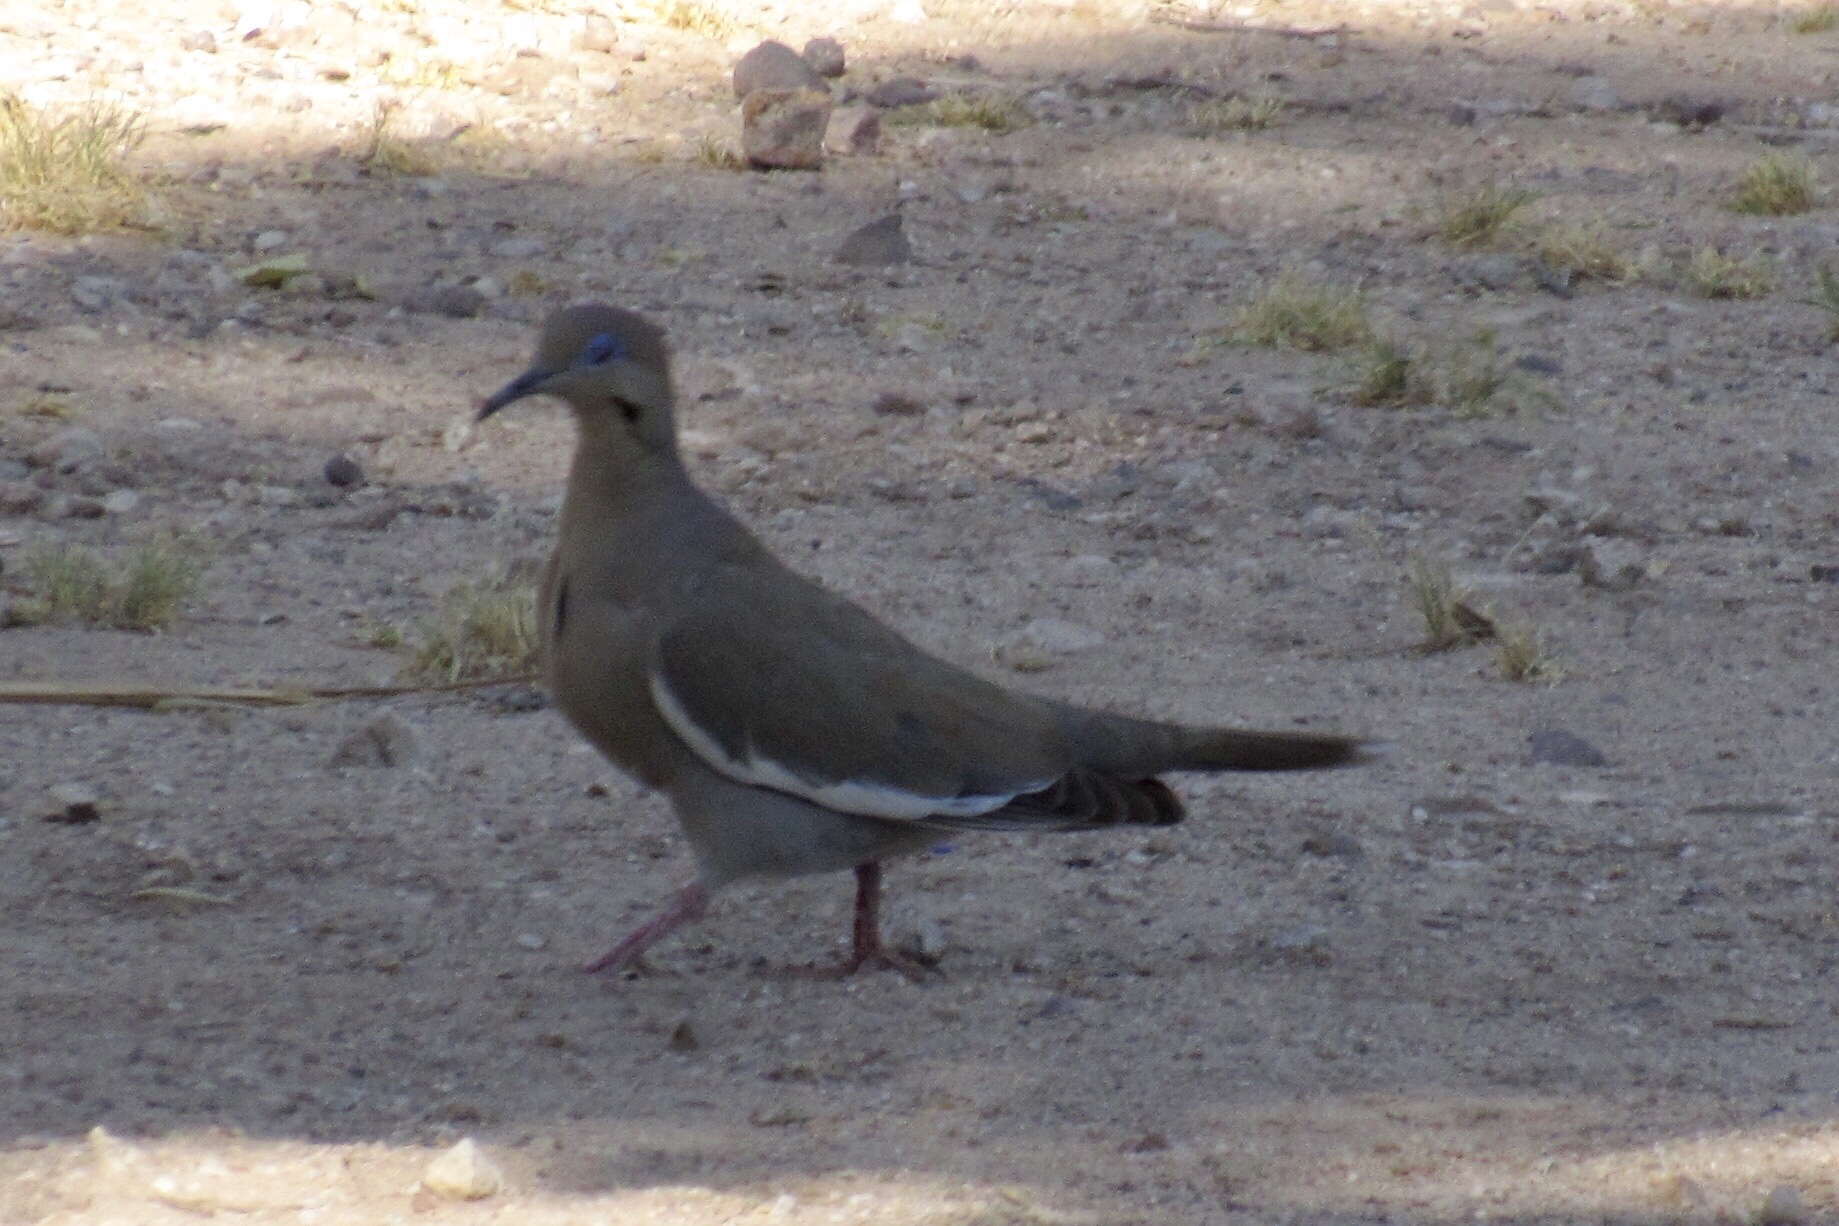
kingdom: Animalia
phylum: Chordata
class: Aves
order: Columbiformes
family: Columbidae
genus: Zenaida
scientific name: Zenaida asiatica
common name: White-winged dove
